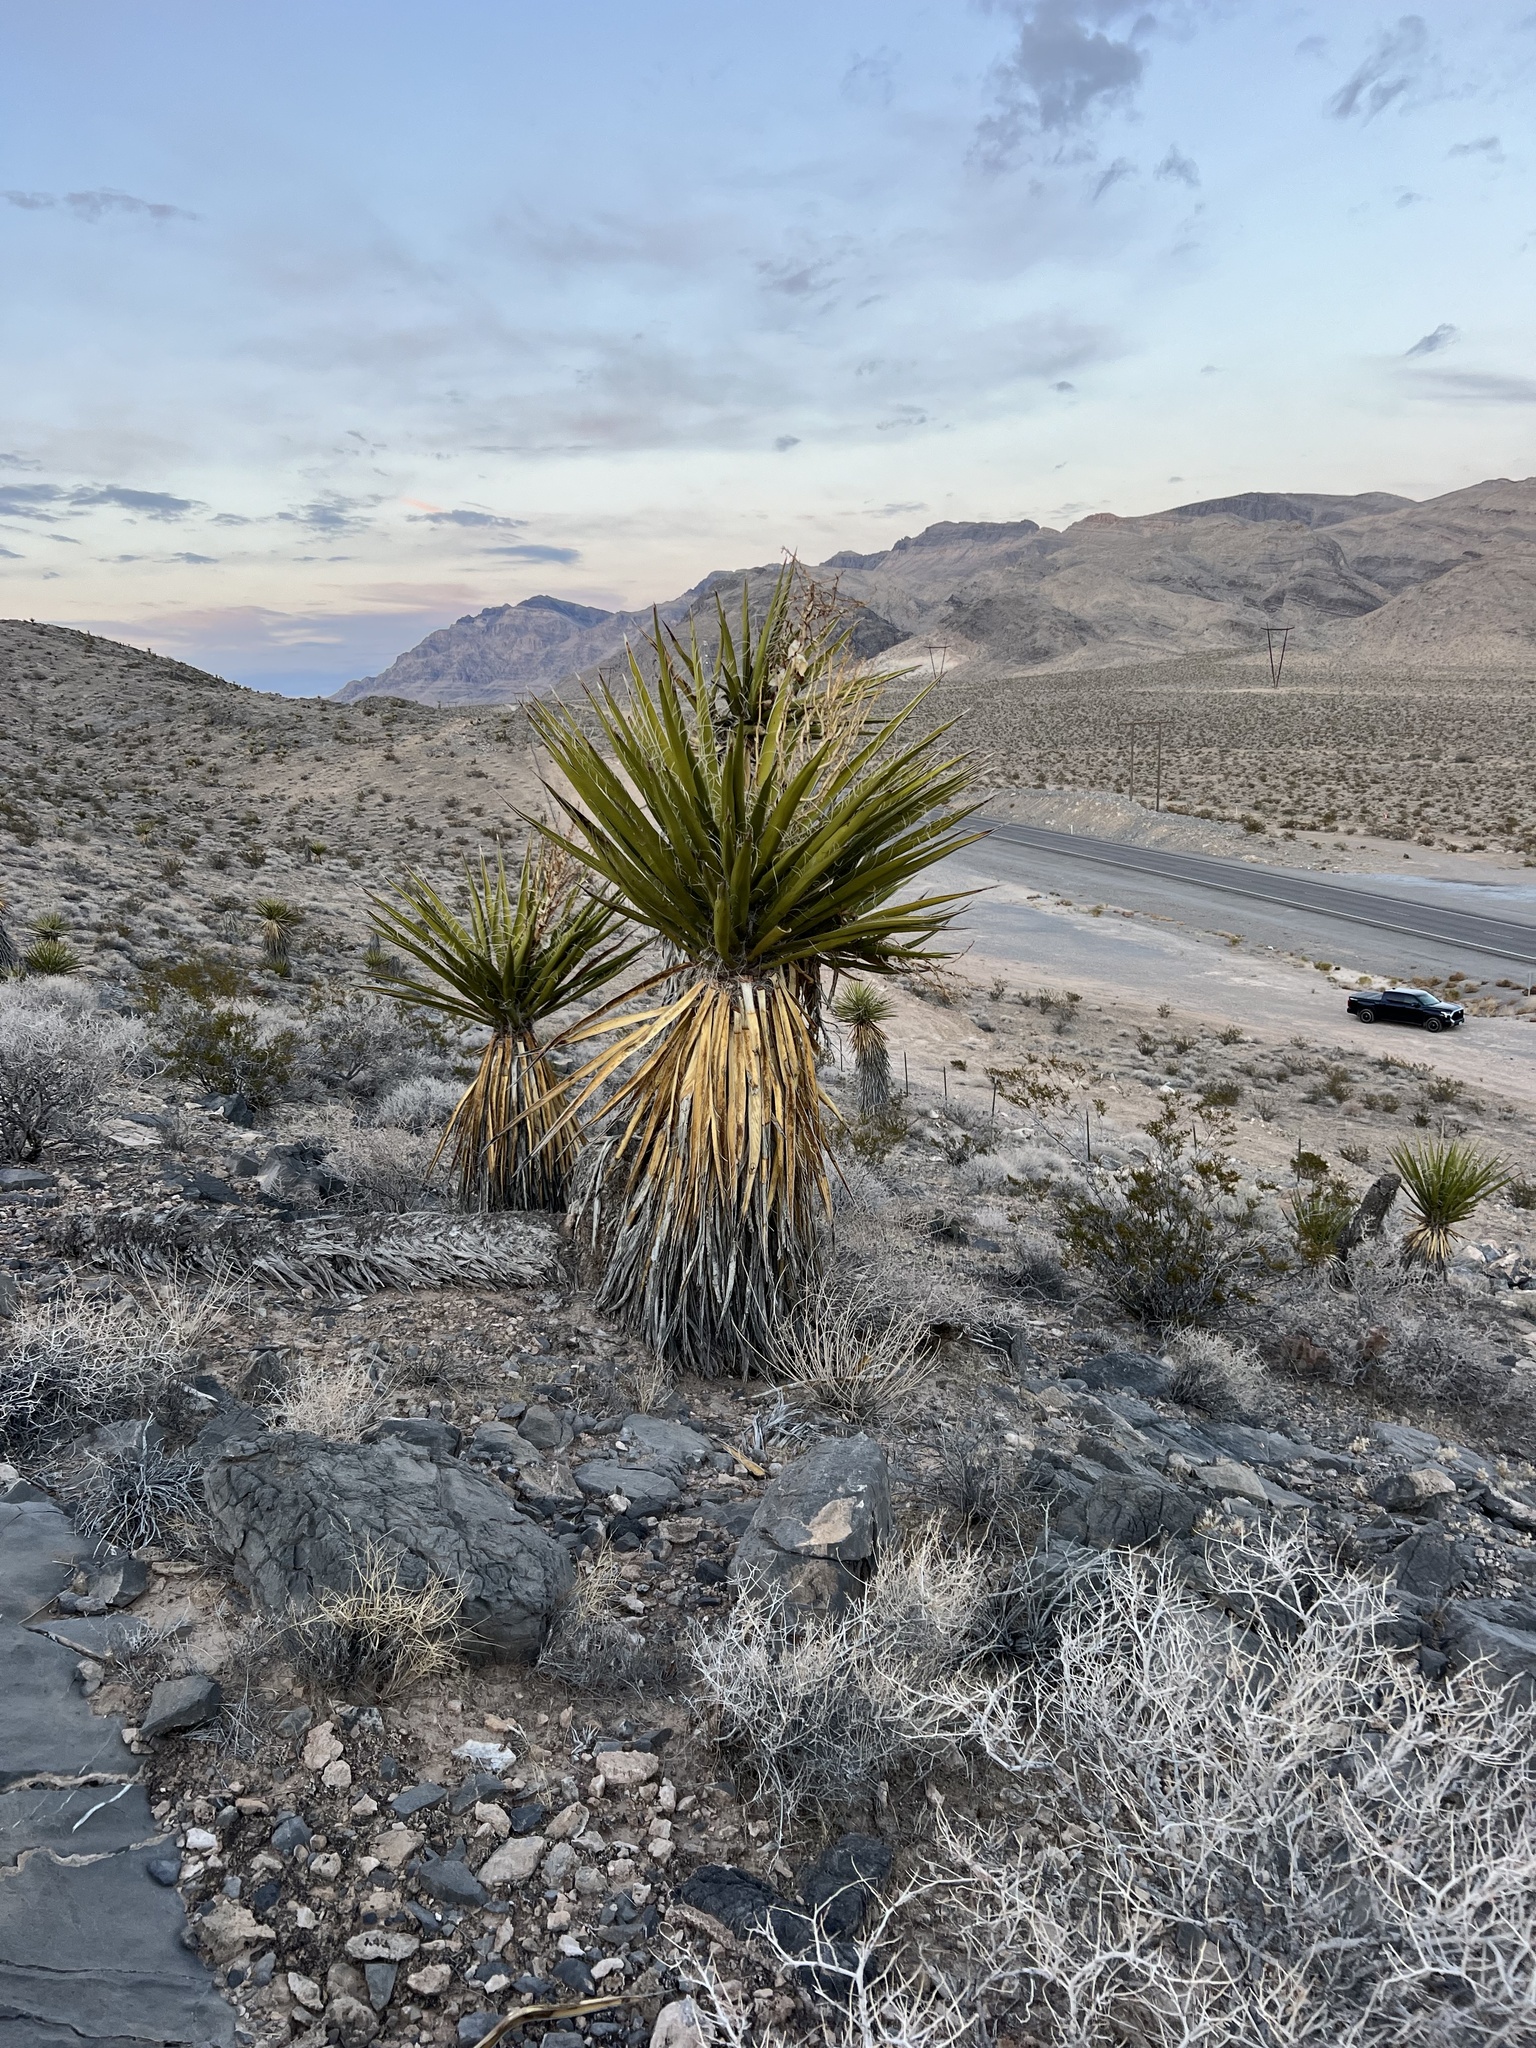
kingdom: Plantae
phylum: Tracheophyta
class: Liliopsida
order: Asparagales
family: Asparagaceae
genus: Yucca
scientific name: Yucca schidigera
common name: Mojave yucca
